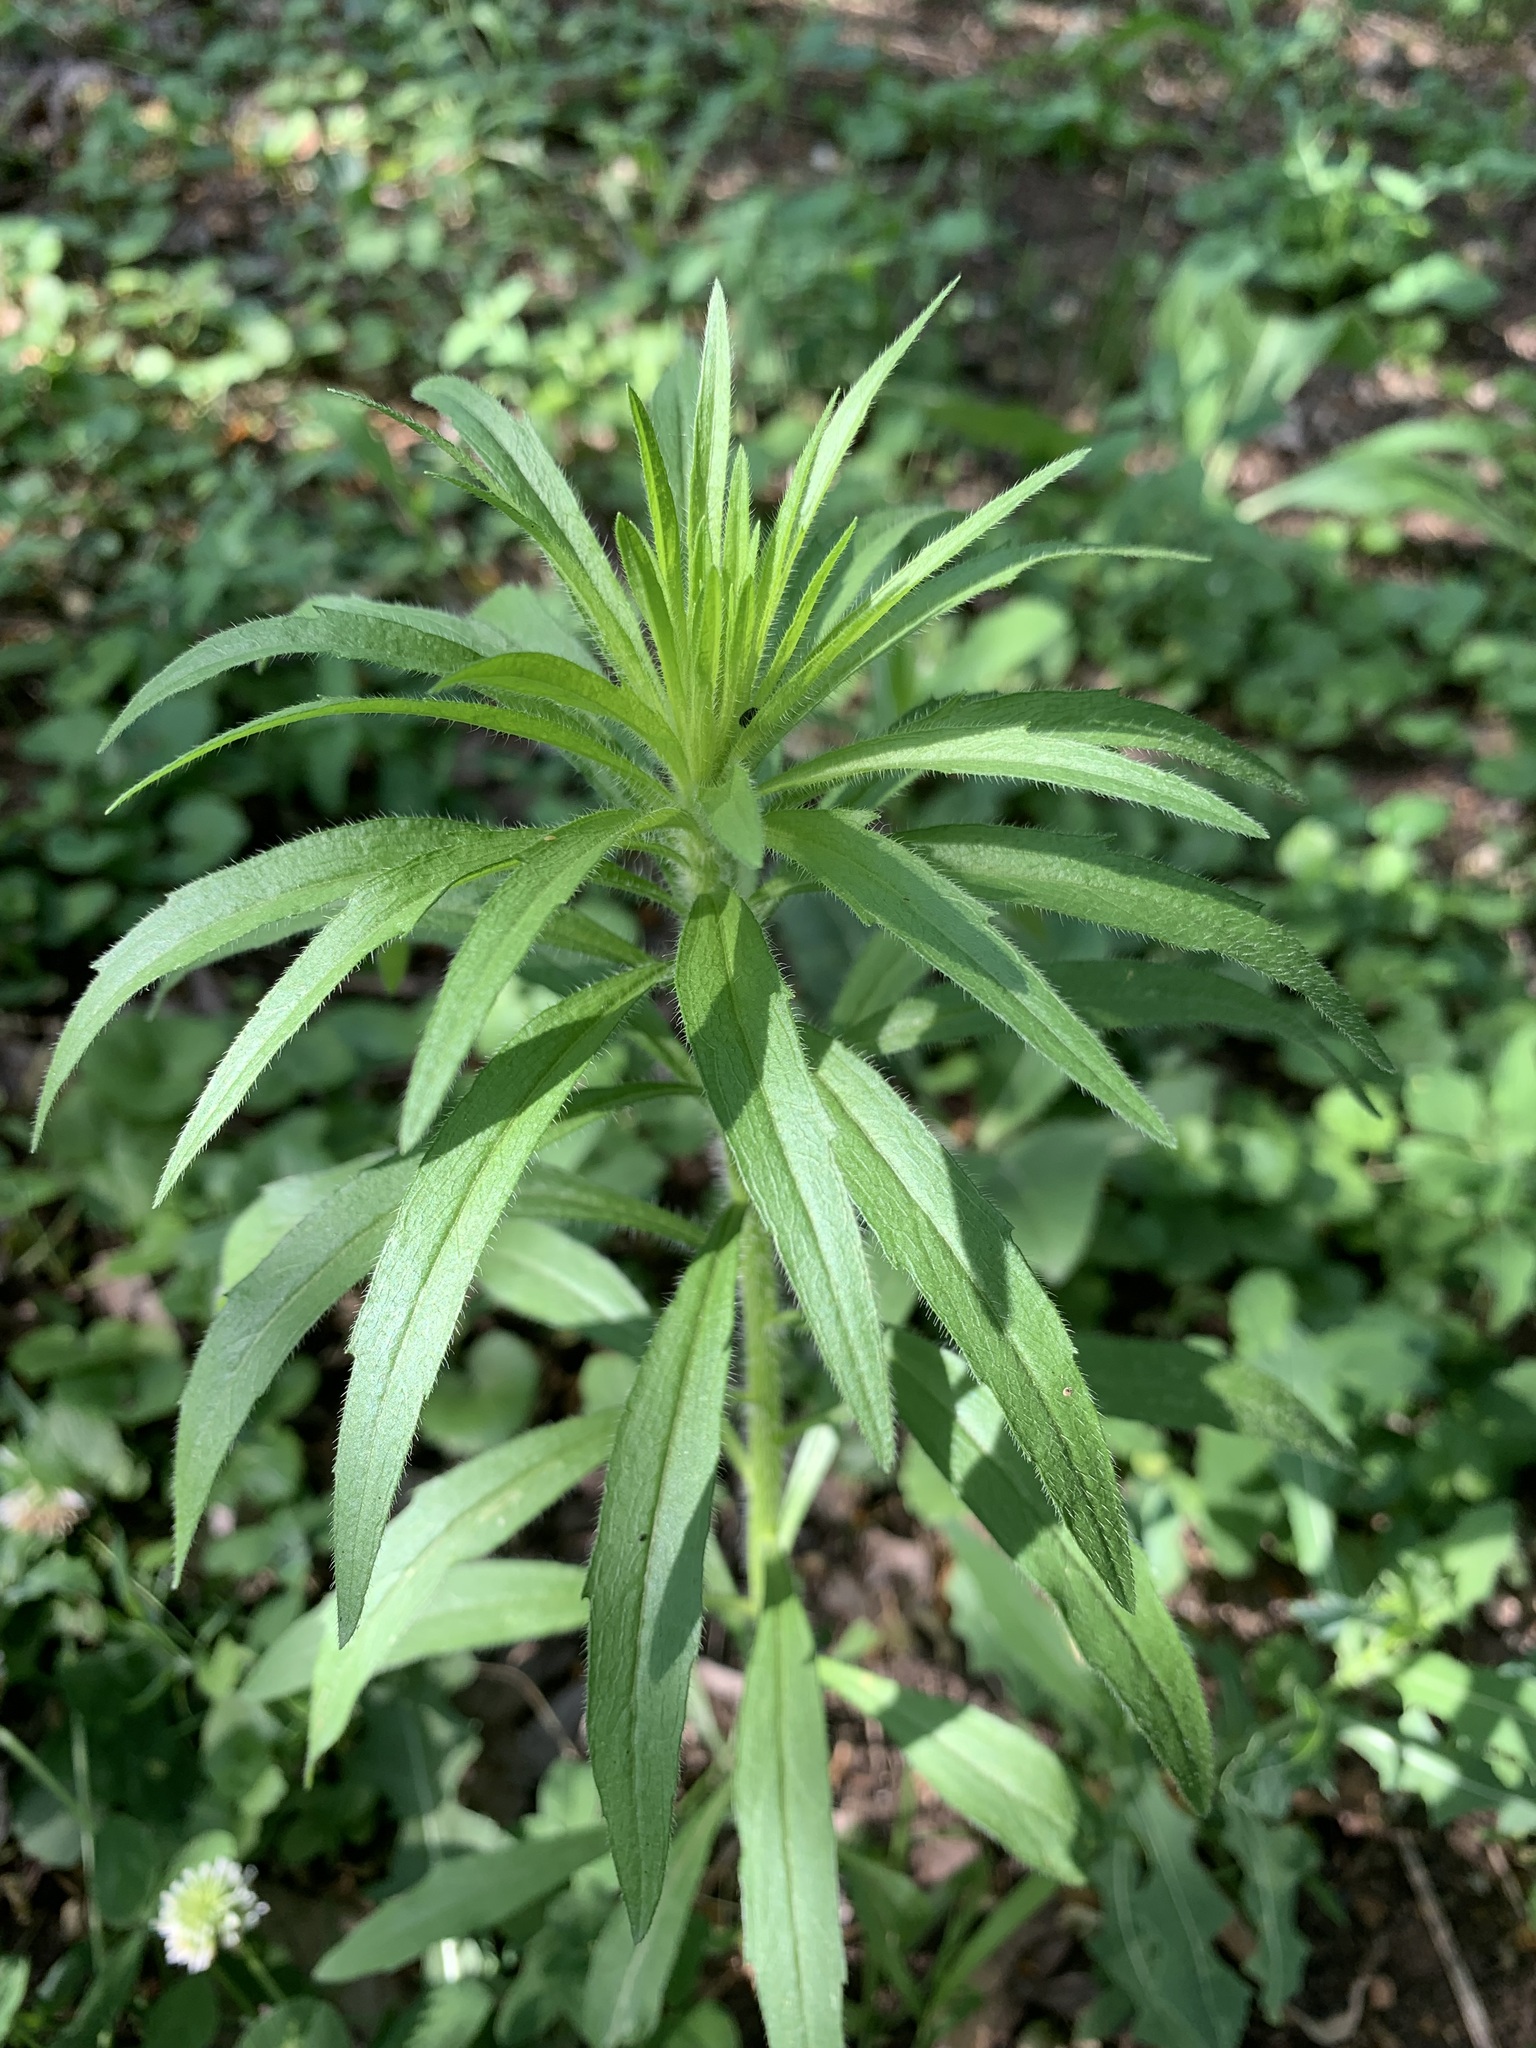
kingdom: Plantae
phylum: Tracheophyta
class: Magnoliopsida
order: Asterales
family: Asteraceae
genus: Erigeron
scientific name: Erigeron canadensis
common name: Canadian fleabane
